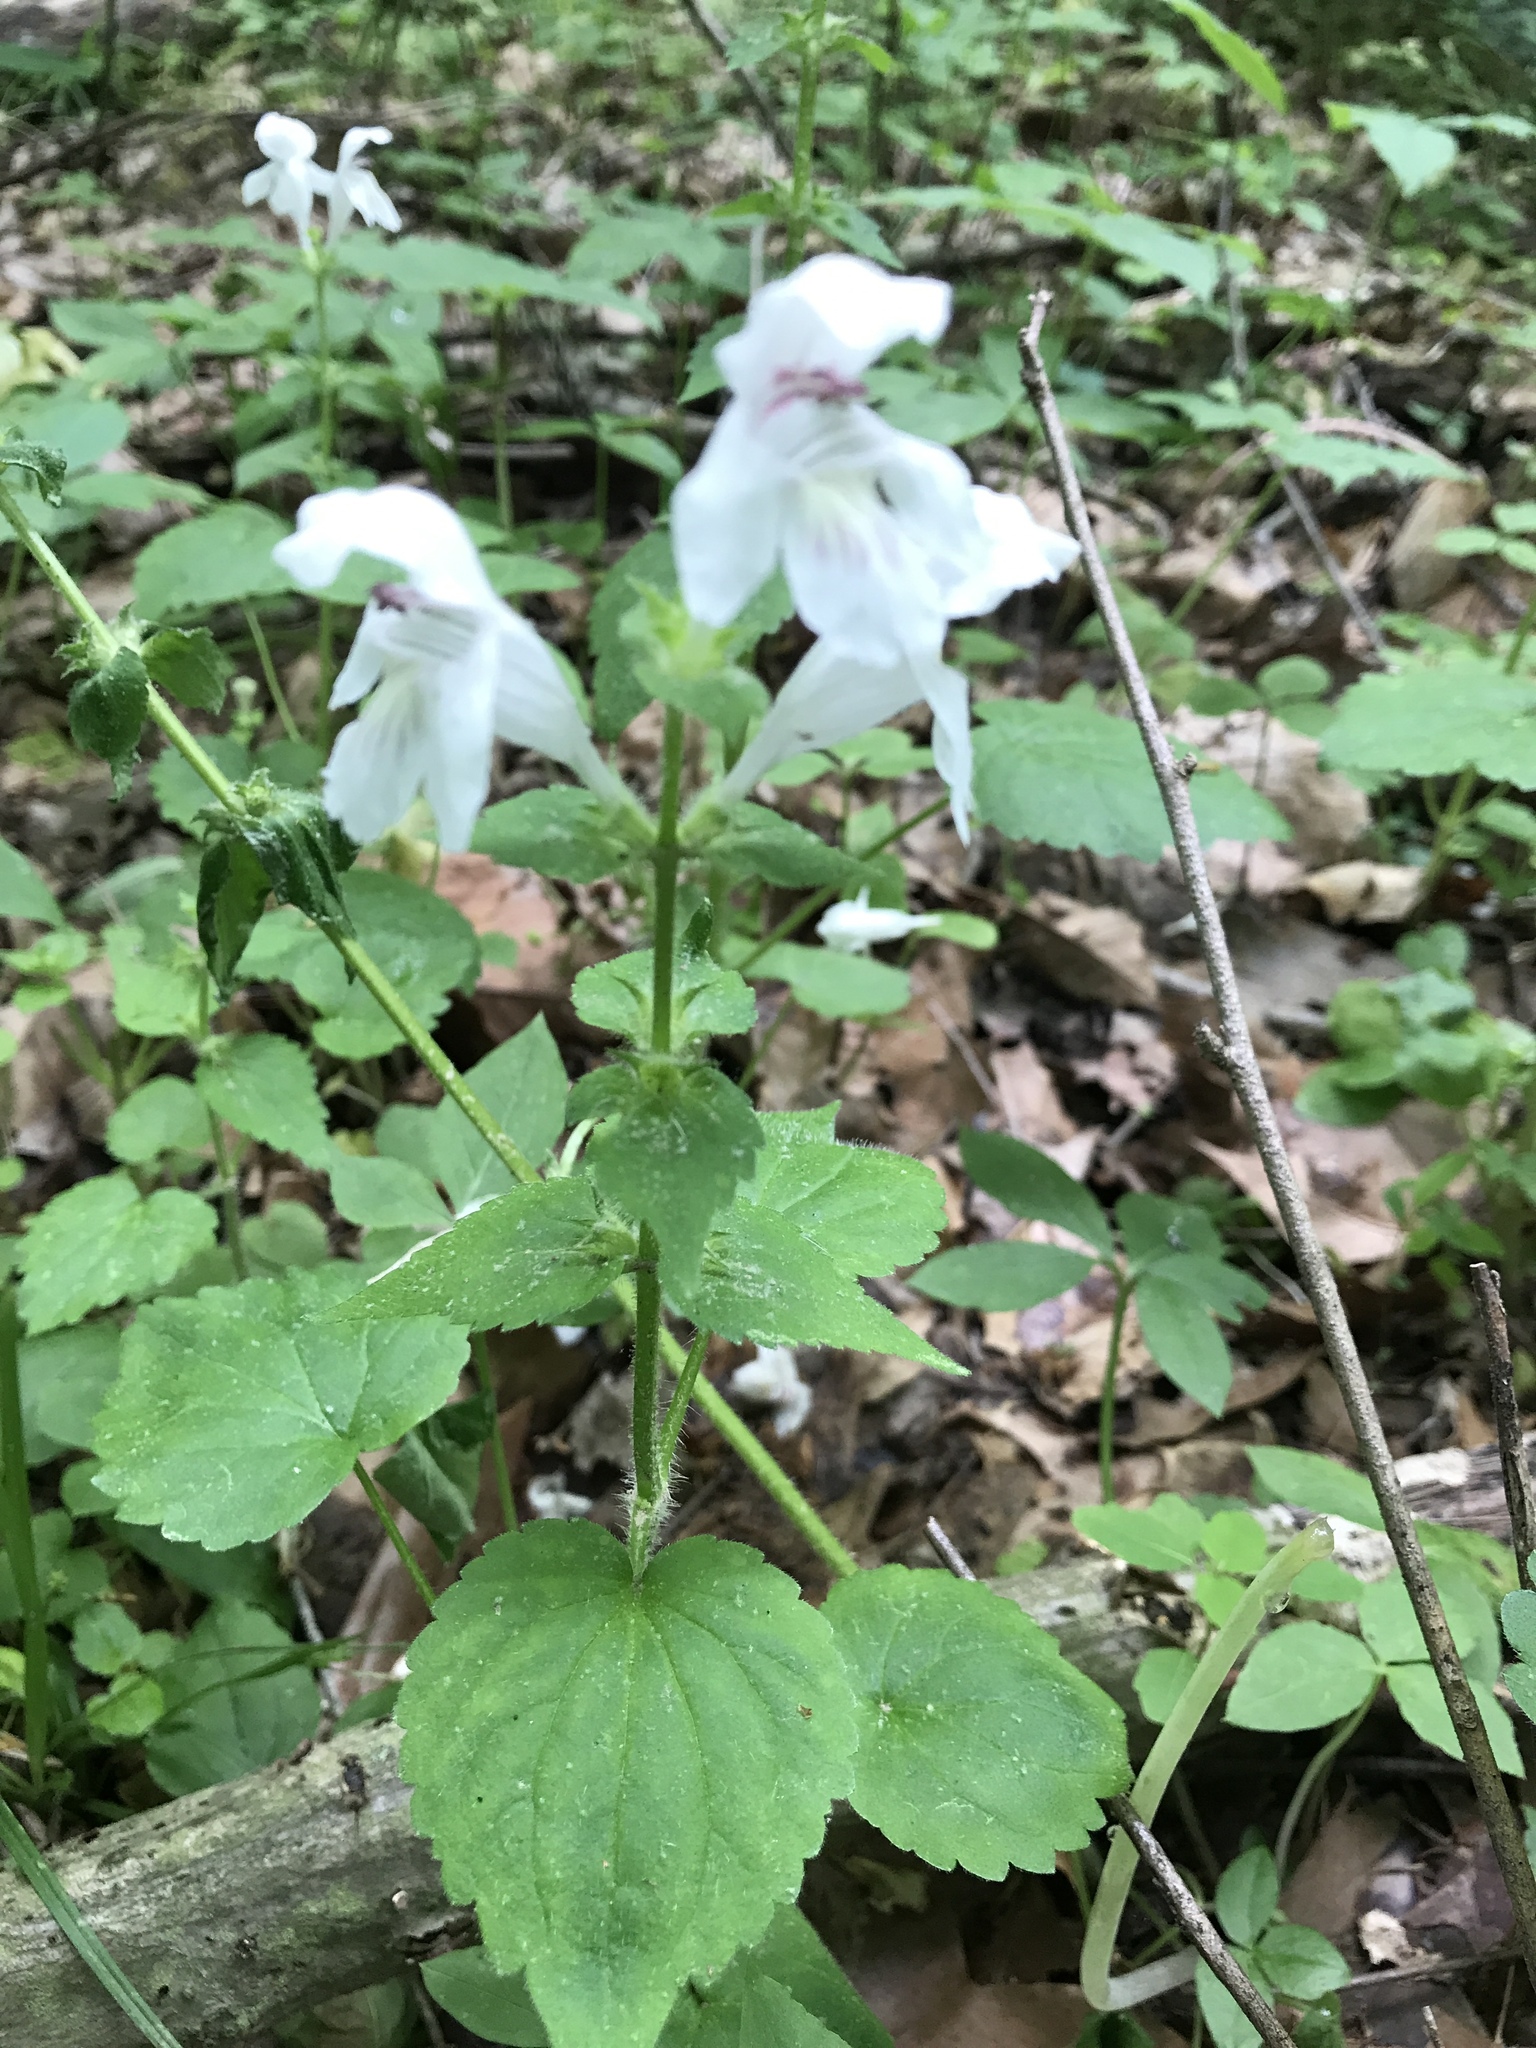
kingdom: Plantae
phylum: Tracheophyta
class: Magnoliopsida
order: Lamiales
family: Lamiaceae
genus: Synandra
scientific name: Synandra hispidula
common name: Synandra
